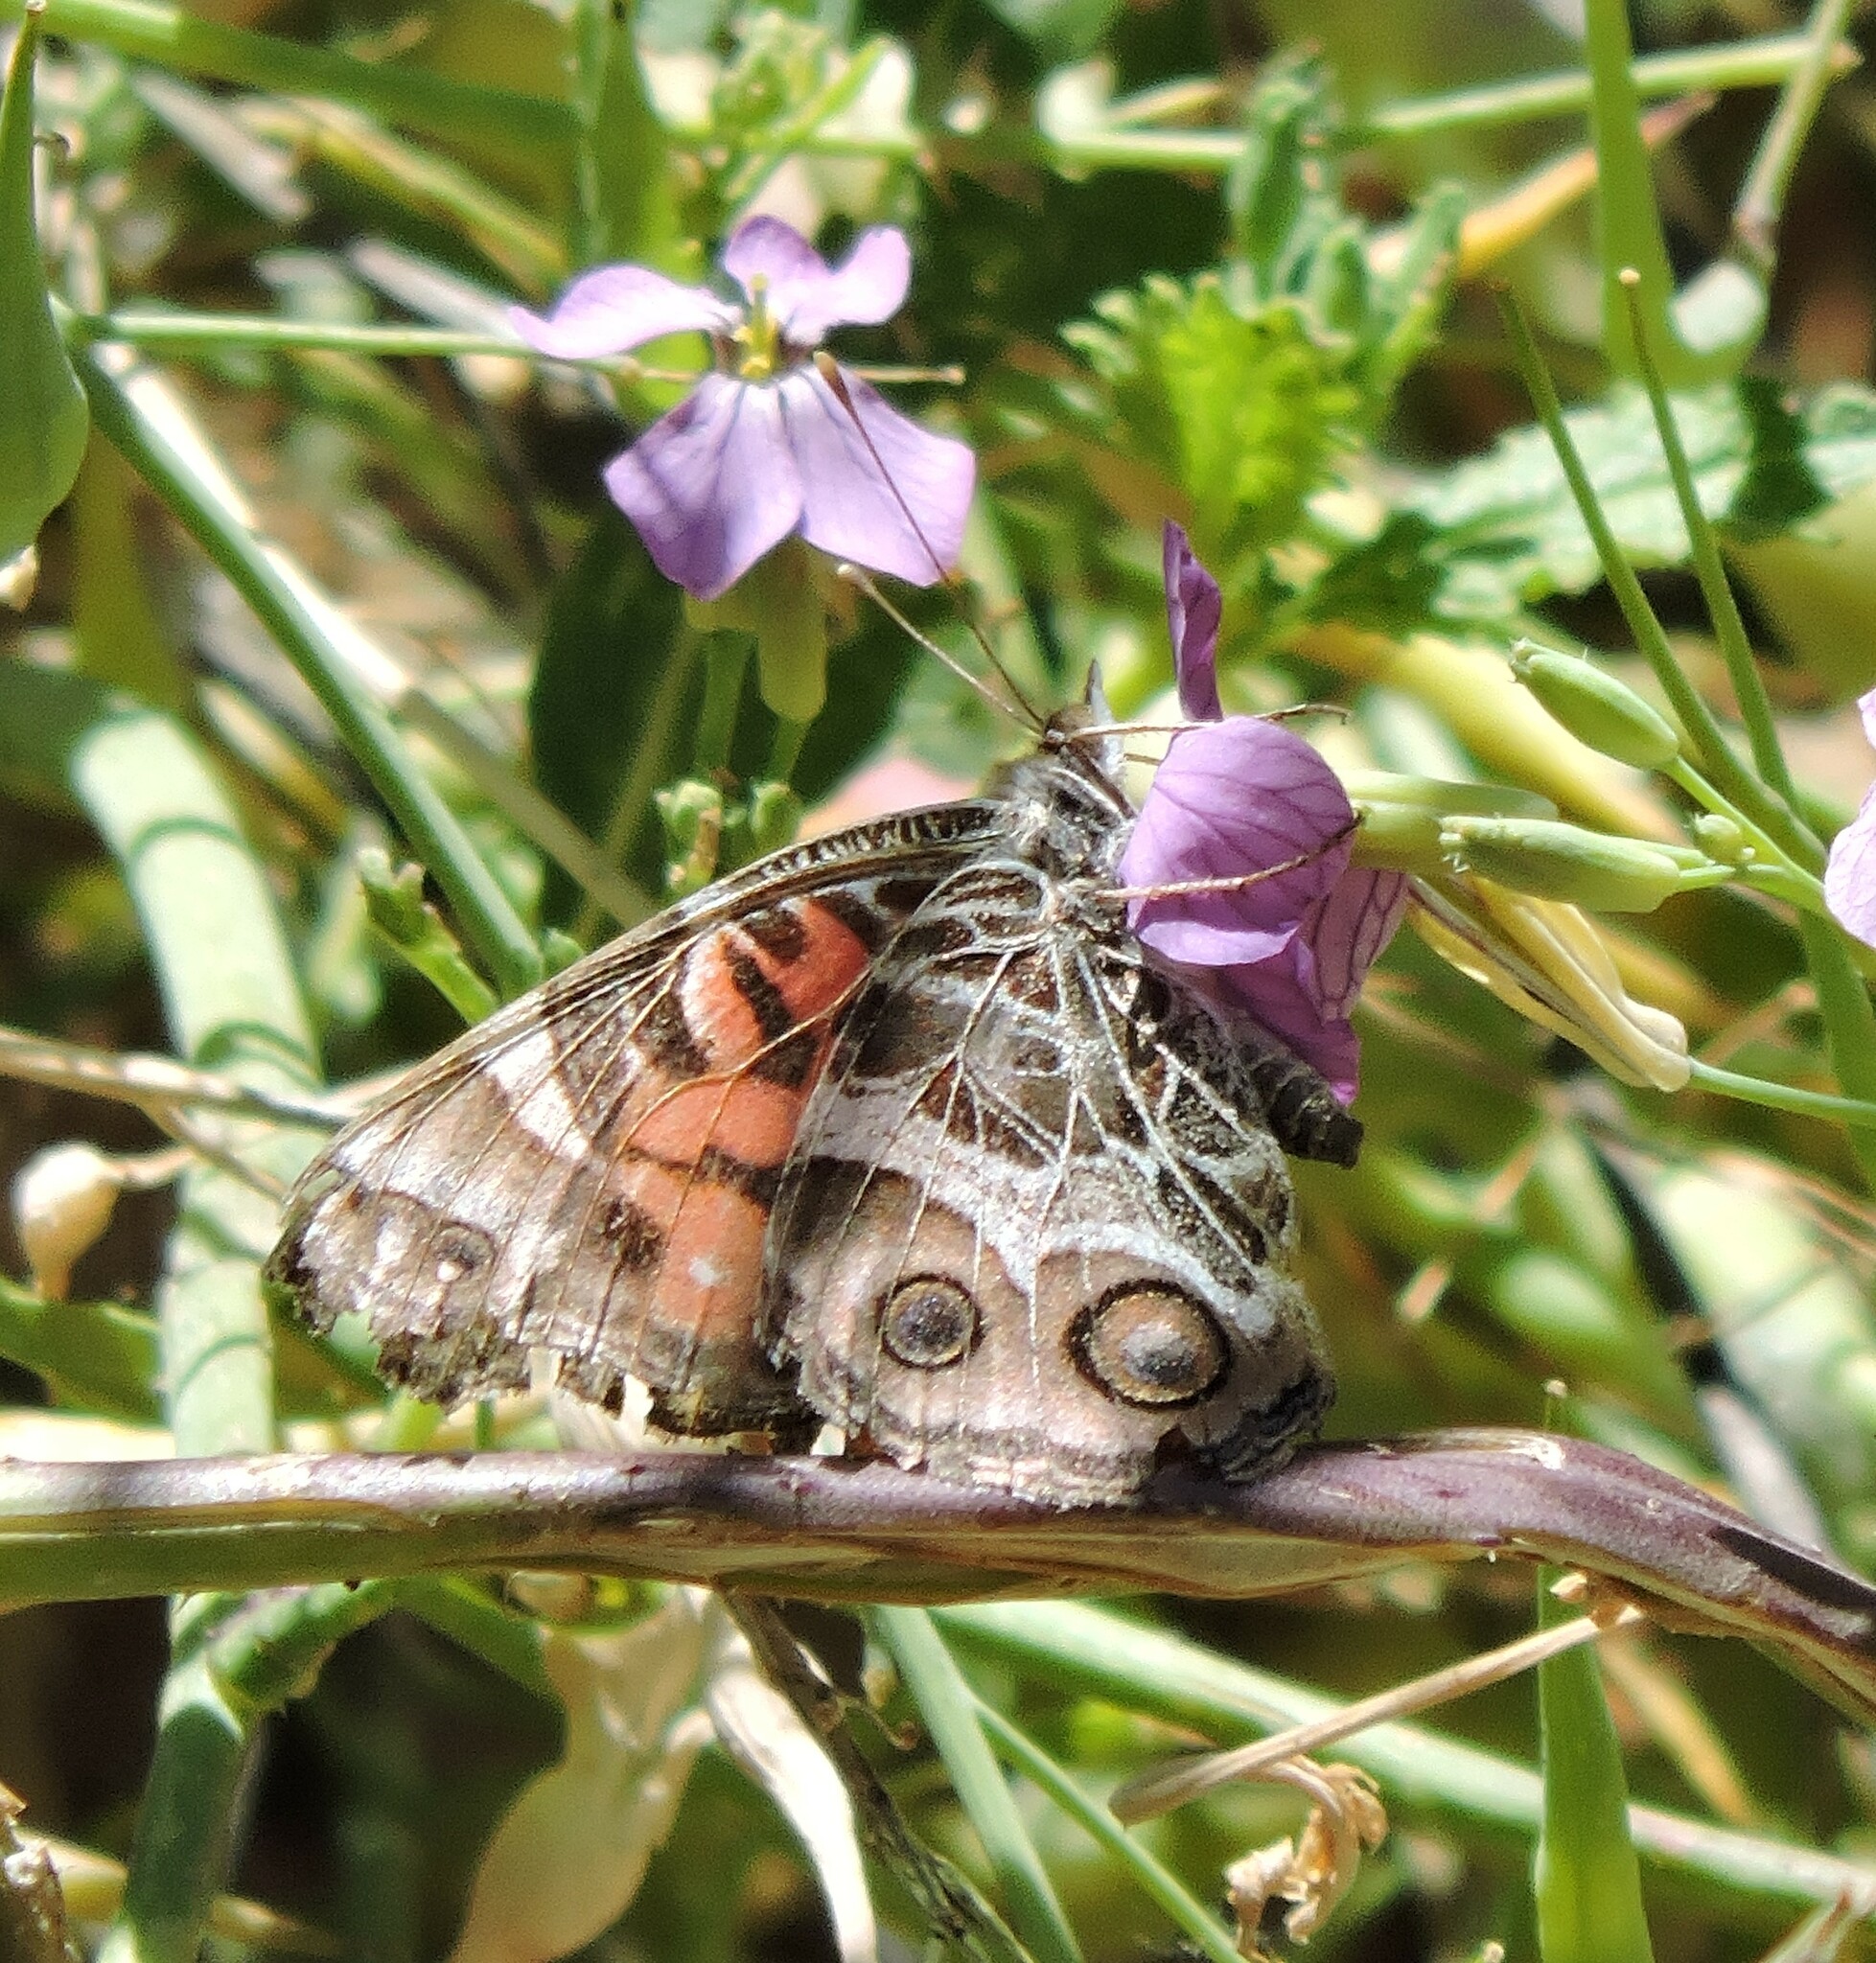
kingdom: Animalia
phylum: Arthropoda
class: Insecta
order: Lepidoptera
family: Nymphalidae
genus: Vanessa
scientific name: Vanessa virginiensis
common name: American lady
